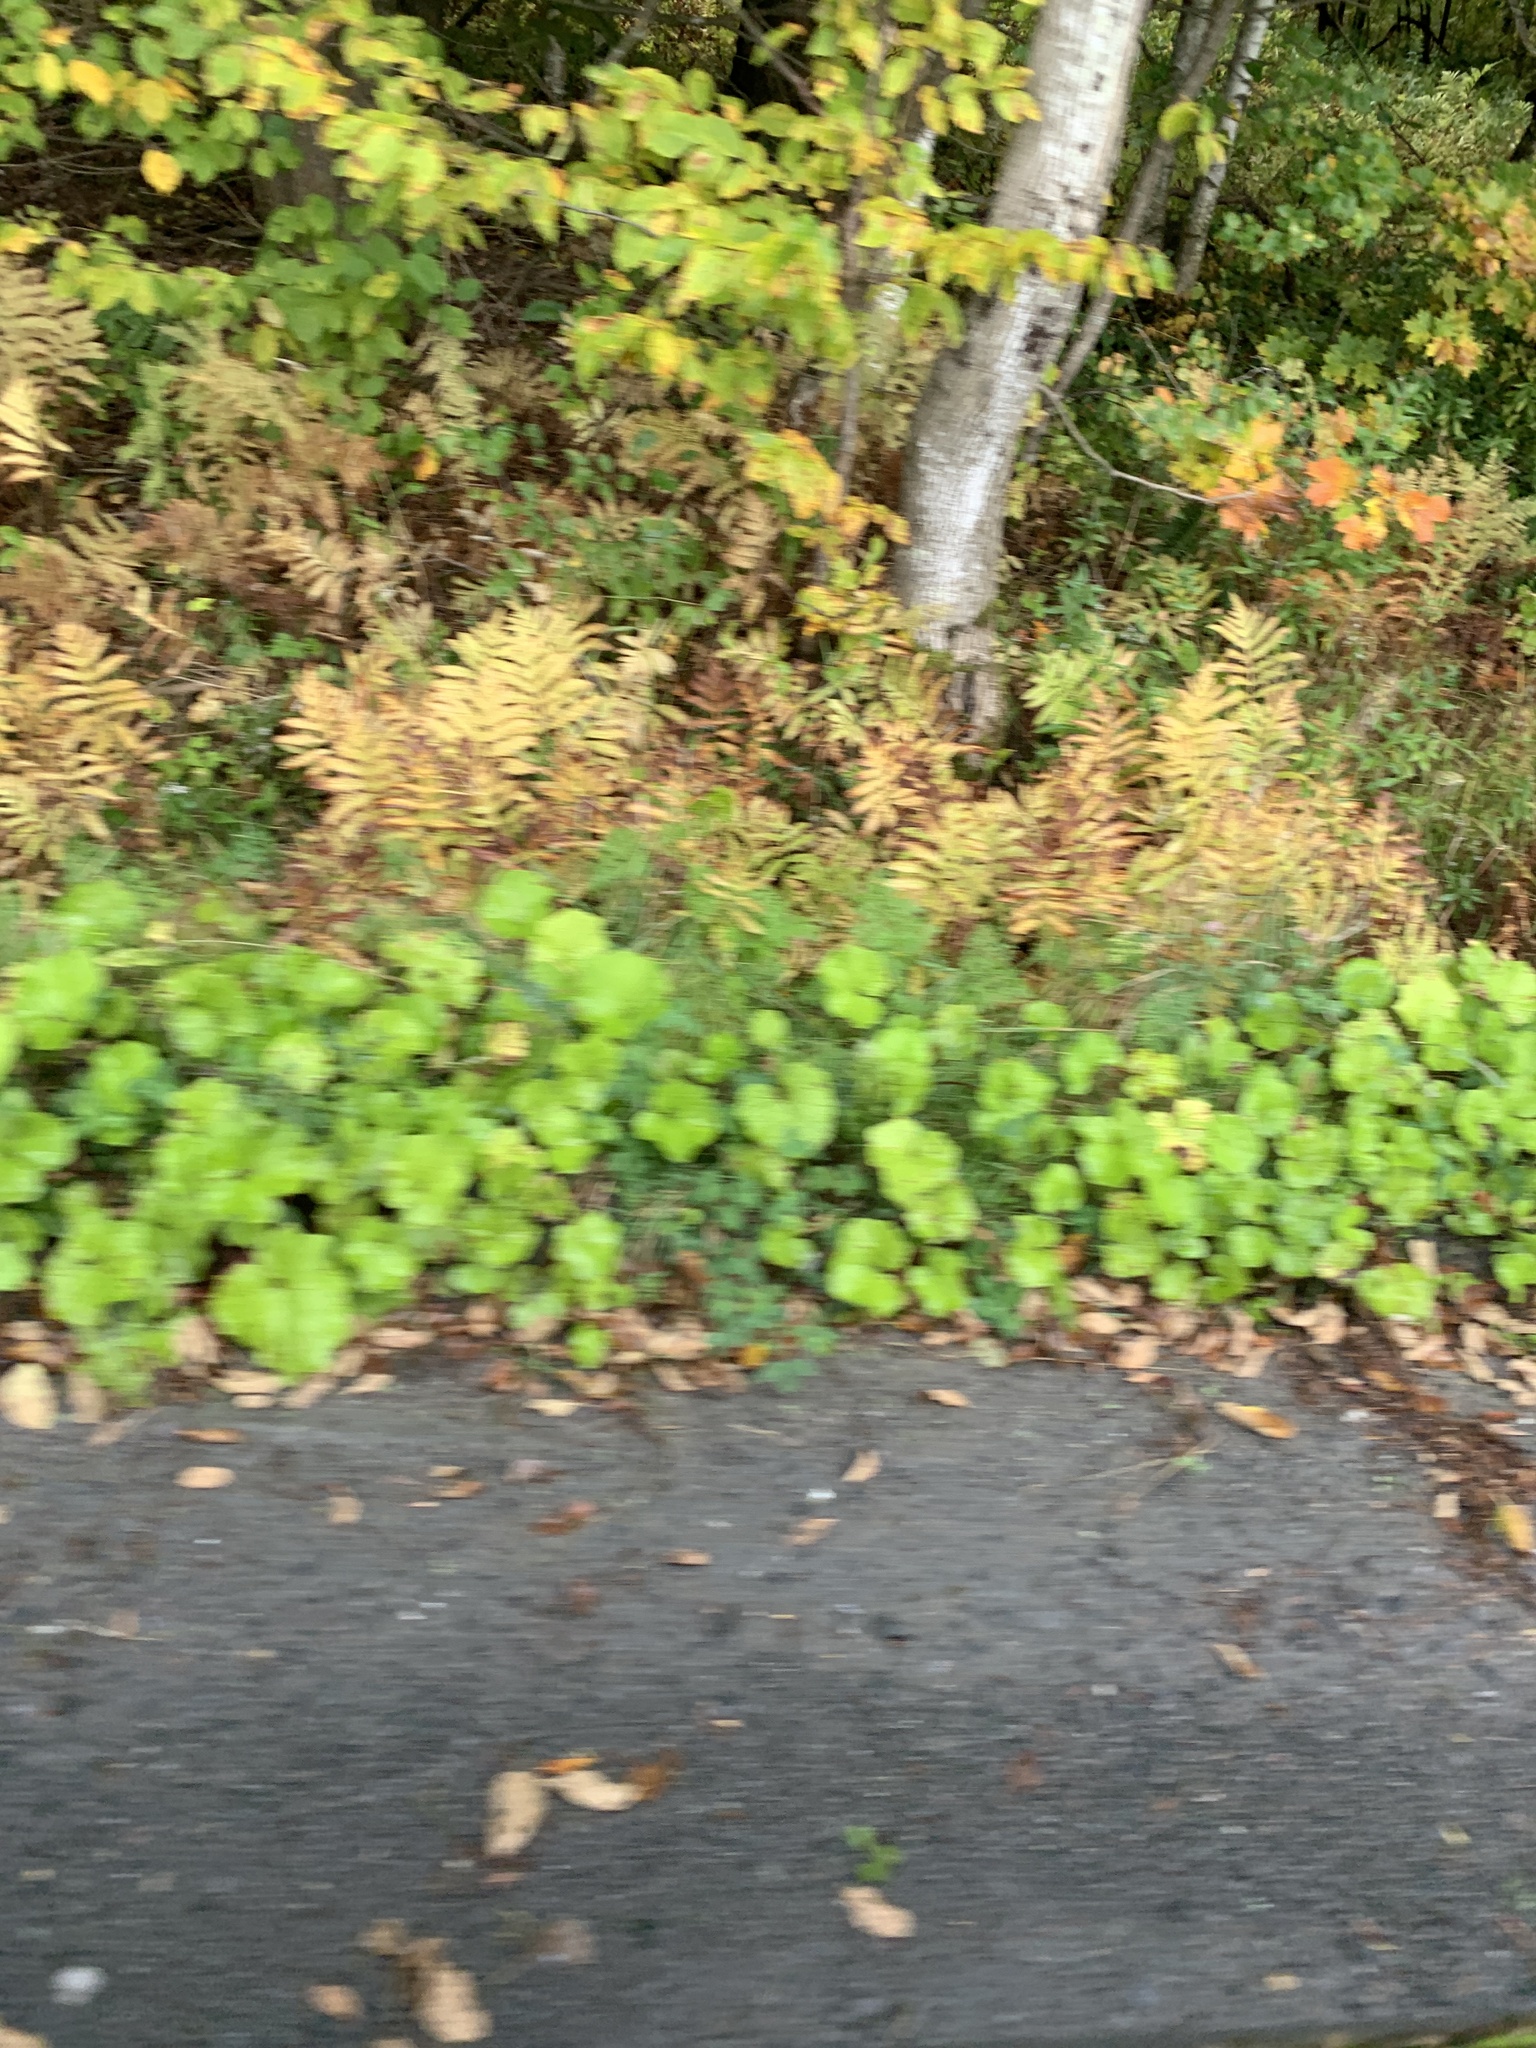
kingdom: Plantae
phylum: Tracheophyta
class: Magnoliopsida
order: Asterales
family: Asteraceae
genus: Tussilago
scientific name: Tussilago farfara
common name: Coltsfoot
